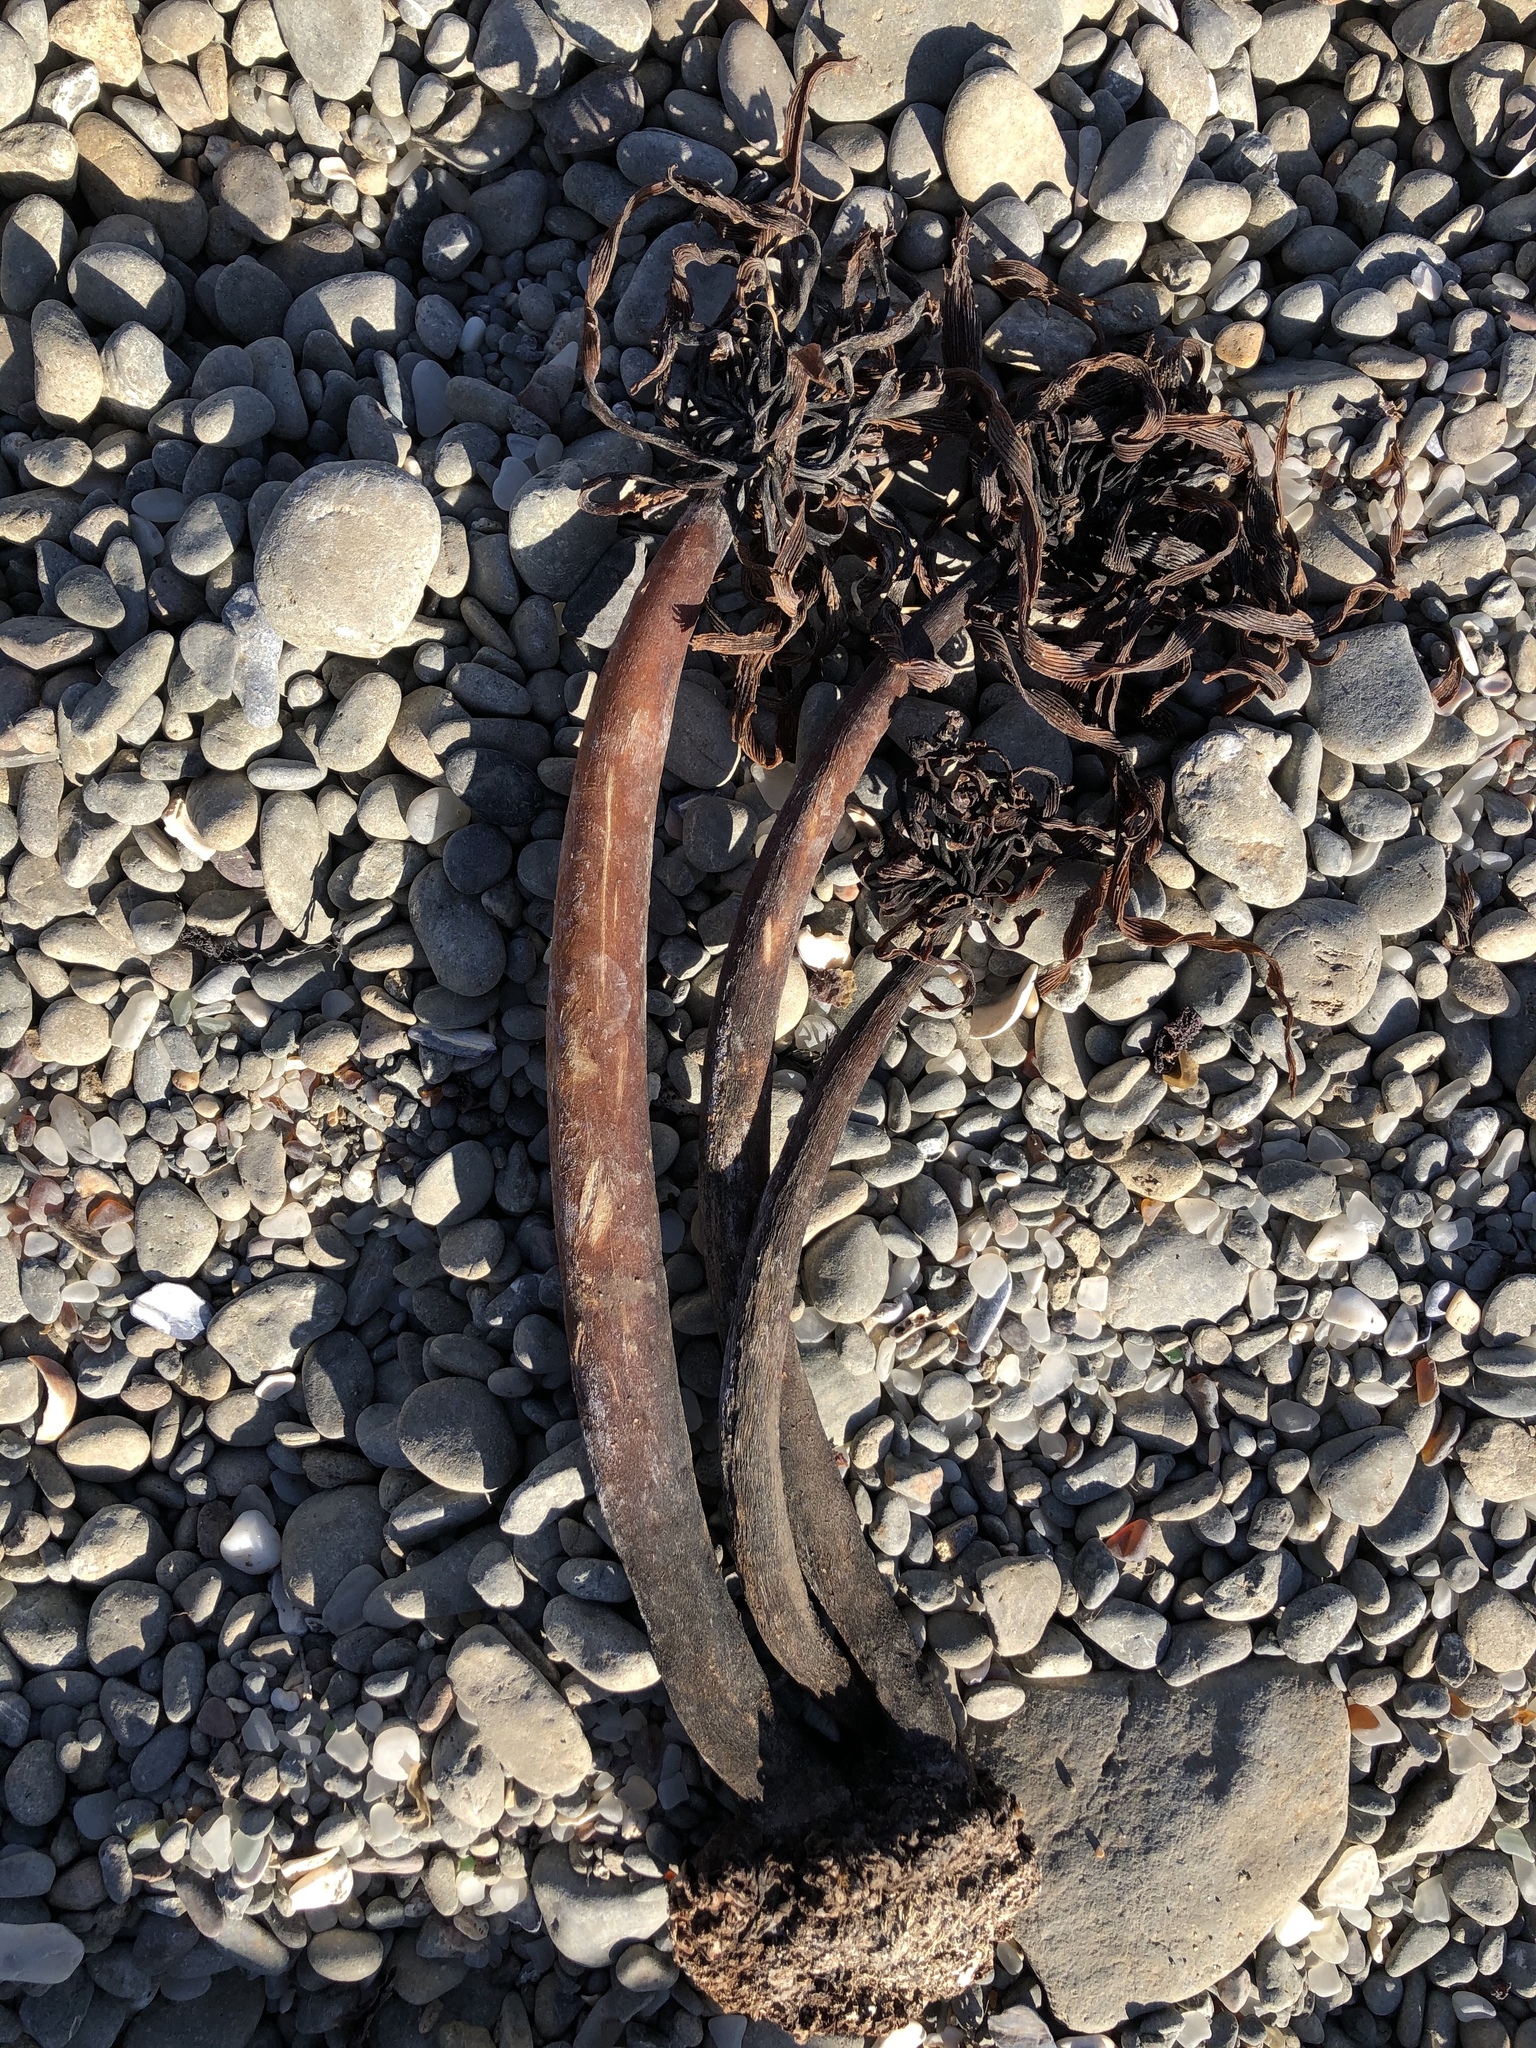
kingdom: Chromista
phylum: Ochrophyta
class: Phaeophyceae
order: Laminariales
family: Laminariaceae
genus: Postelsia
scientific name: Postelsia palmiformis
